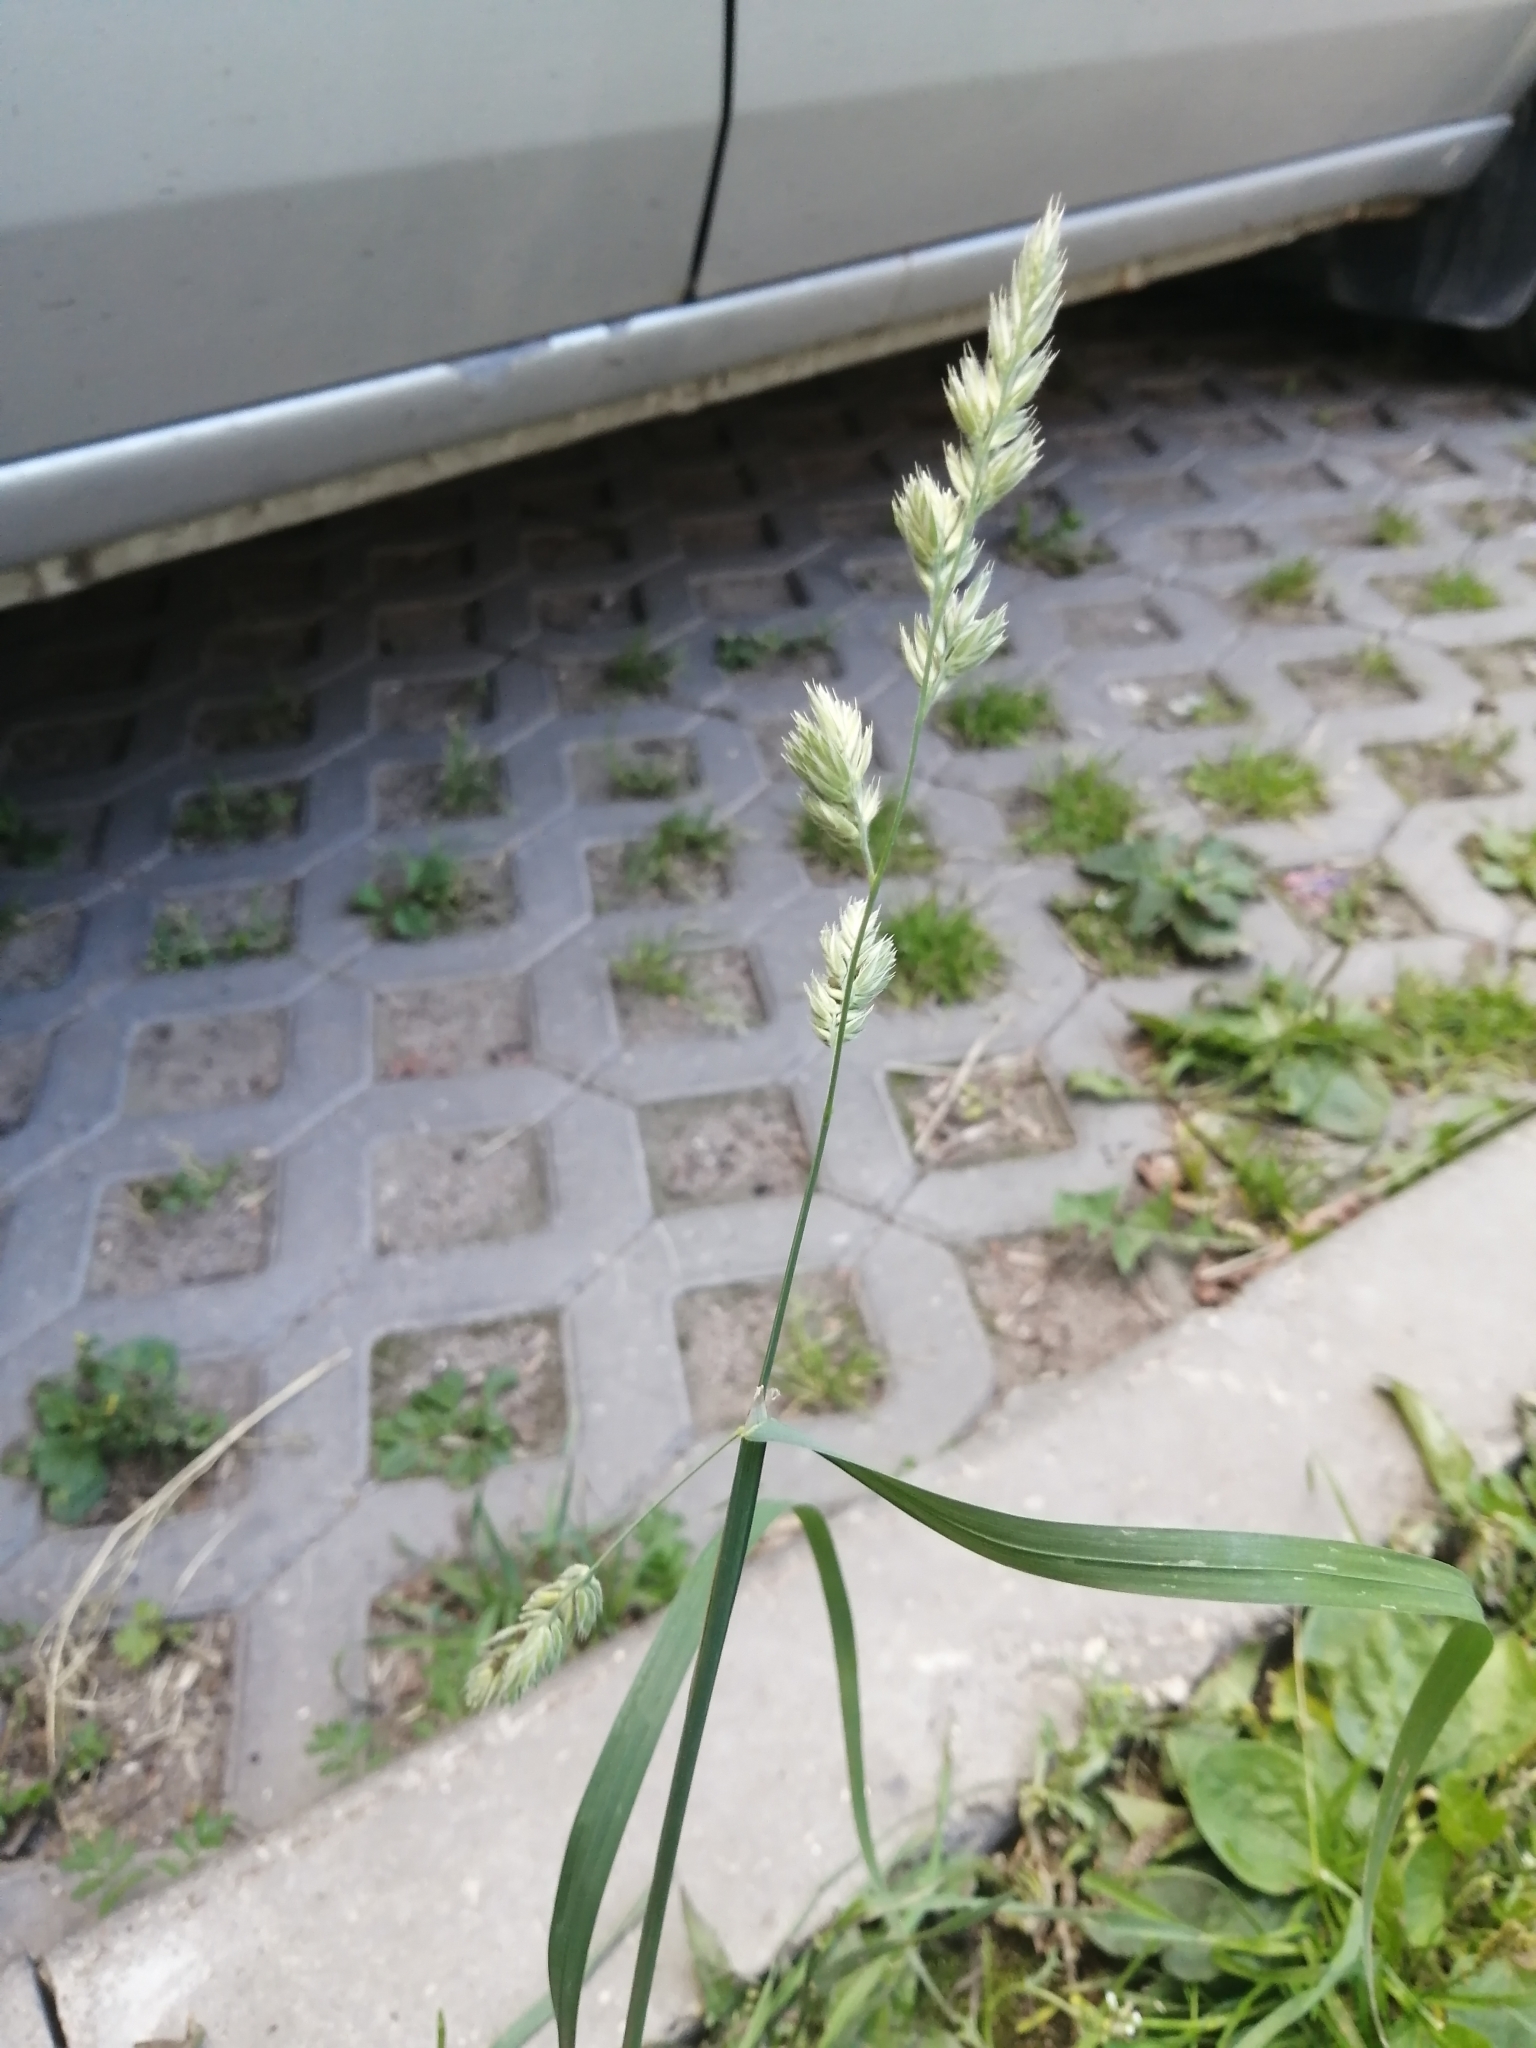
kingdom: Plantae
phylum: Tracheophyta
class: Liliopsida
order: Poales
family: Poaceae
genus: Dactylis
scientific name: Dactylis glomerata
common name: Orchardgrass
